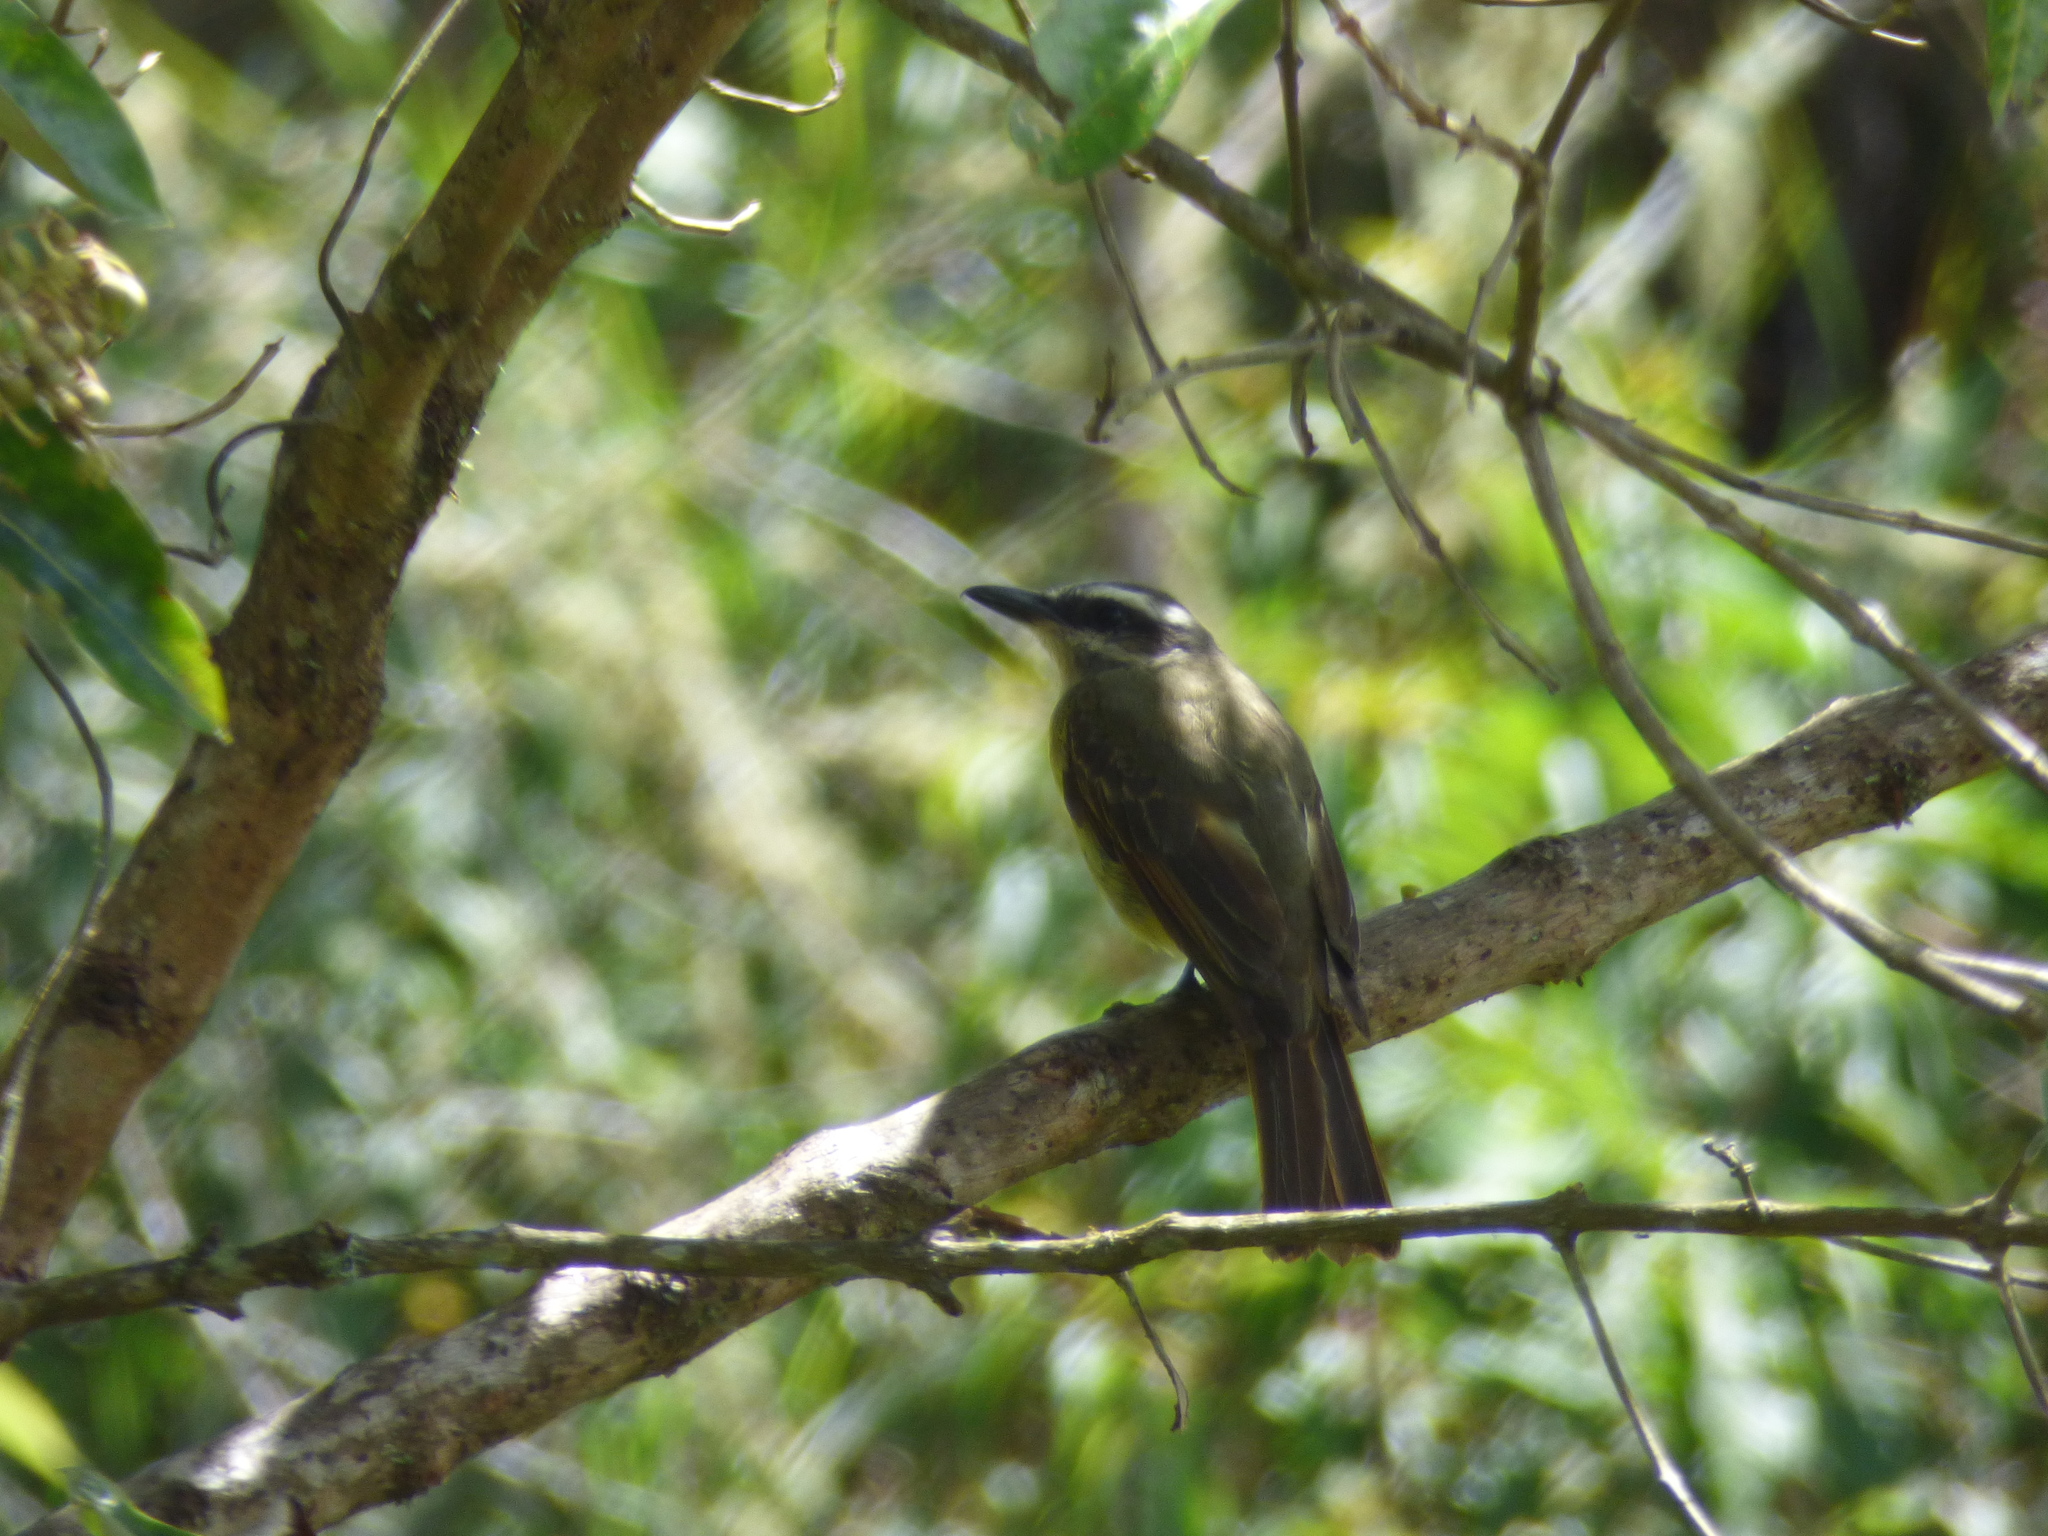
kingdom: Animalia
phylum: Chordata
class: Aves
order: Passeriformes
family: Tyrannidae
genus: Myiodynastes
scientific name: Myiodynastes hemichrysus
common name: Golden-bellied flycatcher
